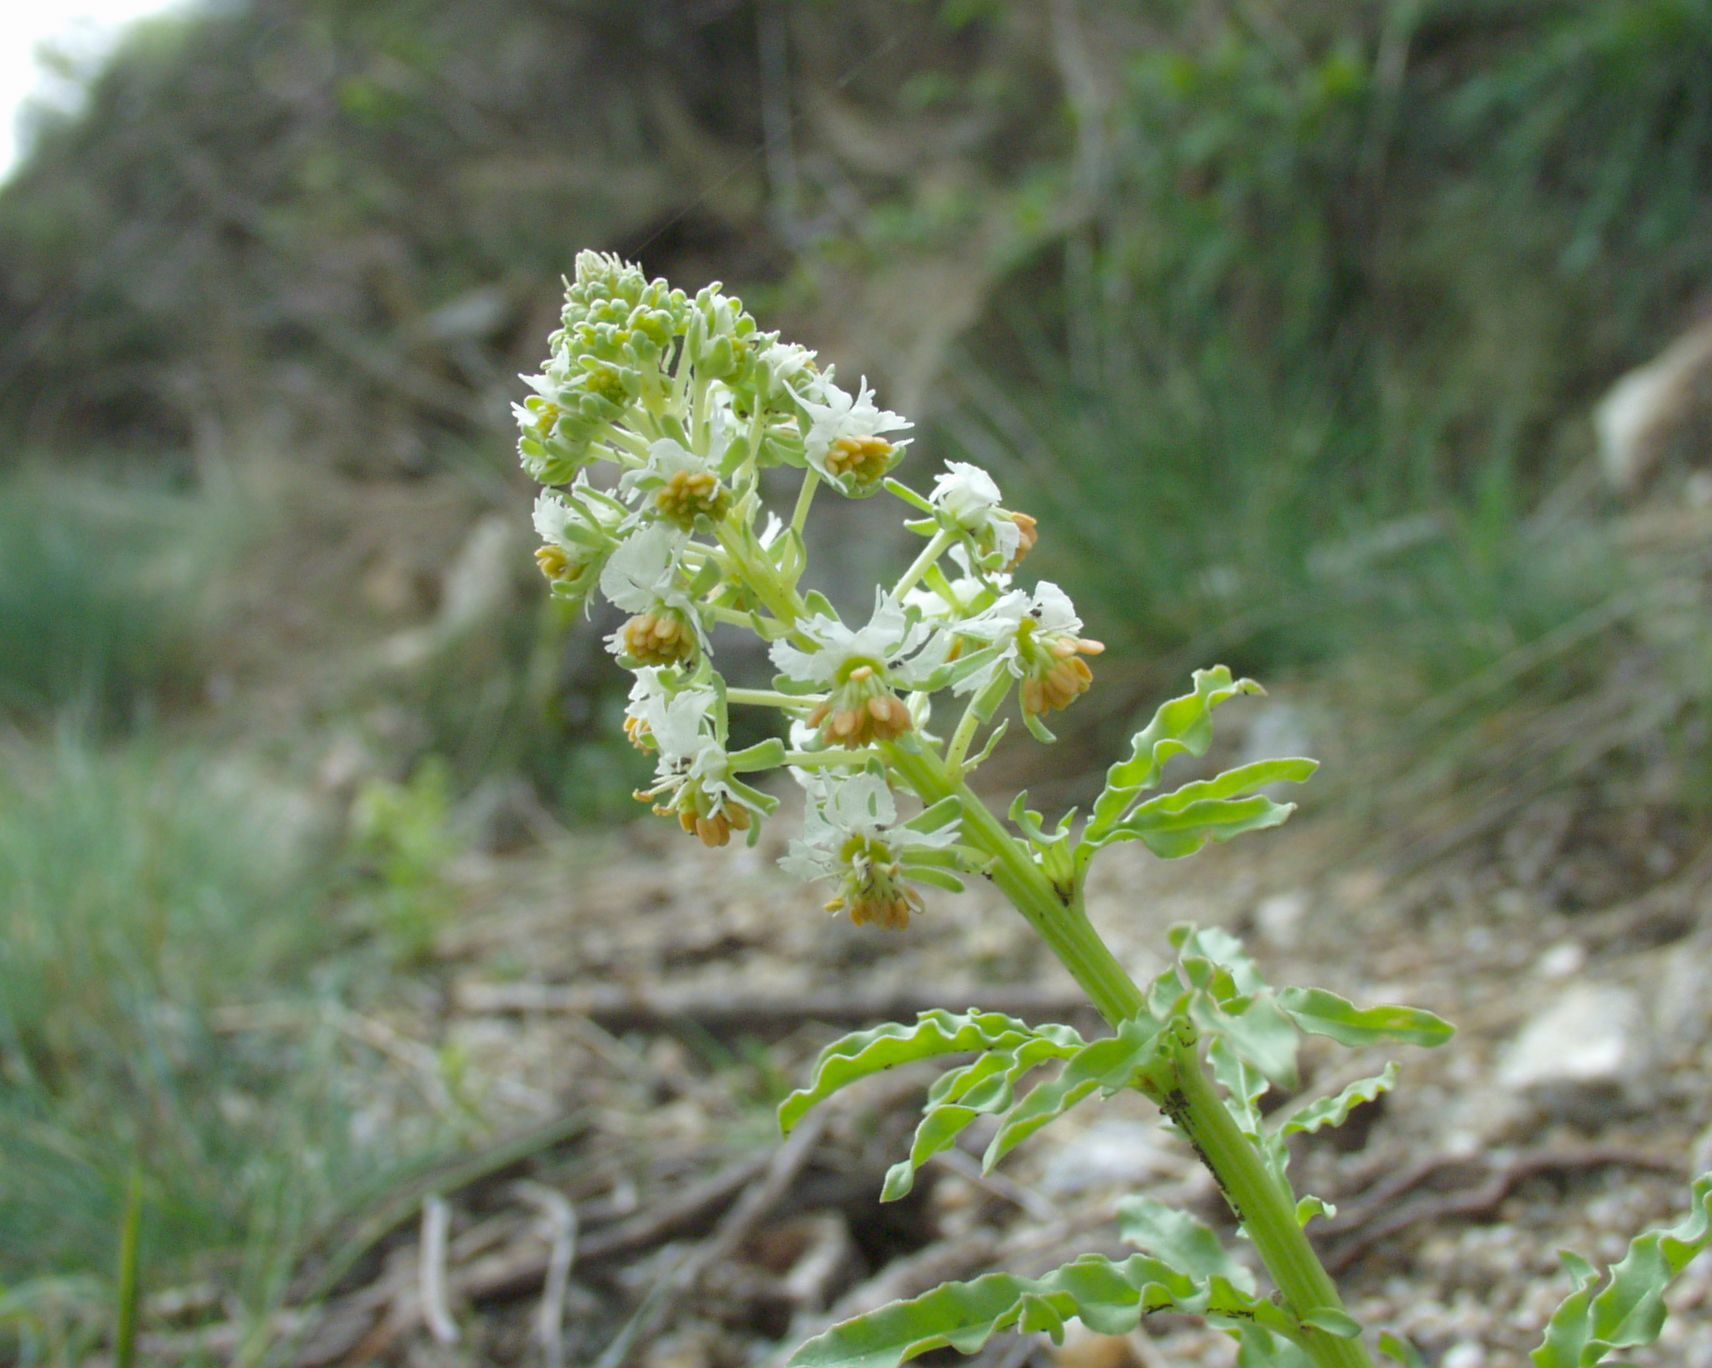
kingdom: Plantae
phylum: Tracheophyta
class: Magnoliopsida
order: Brassicales
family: Resedaceae
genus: Reseda
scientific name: Reseda jacquinii
